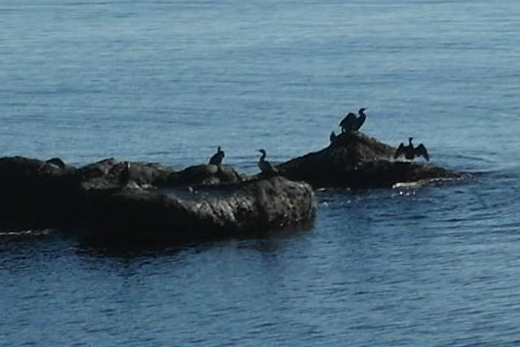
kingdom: Animalia
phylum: Chordata
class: Aves
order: Suliformes
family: Phalacrocoracidae
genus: Phalacrocorax
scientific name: Phalacrocorax carbo
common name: Great cormorant
